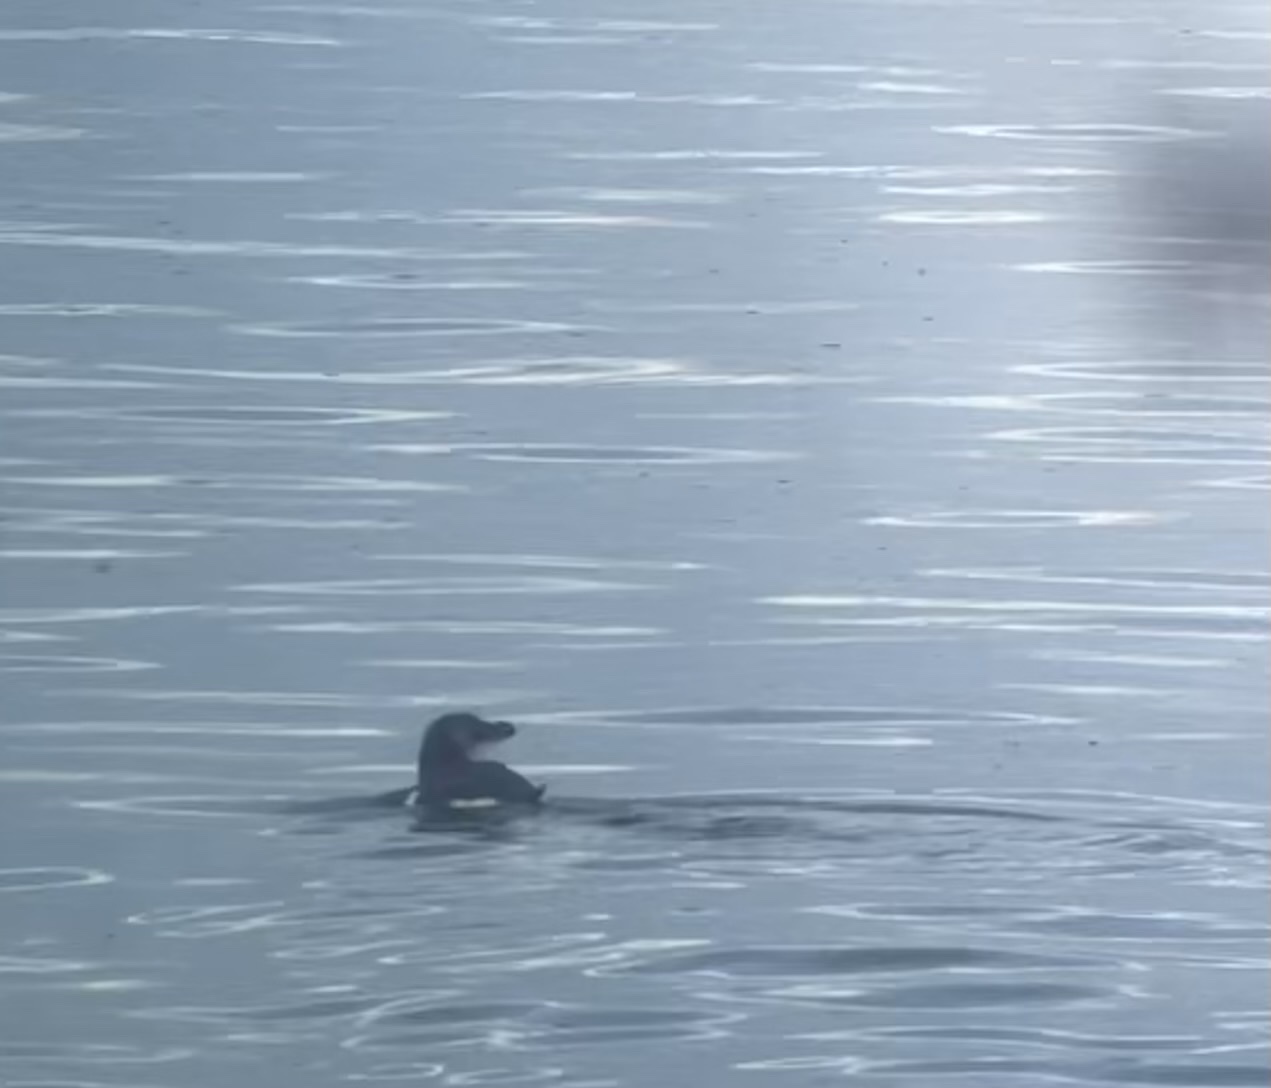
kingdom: Animalia
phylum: Chordata
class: Aves
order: Charadriiformes
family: Alcidae
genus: Alca
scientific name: Alca torda
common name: Razorbill
